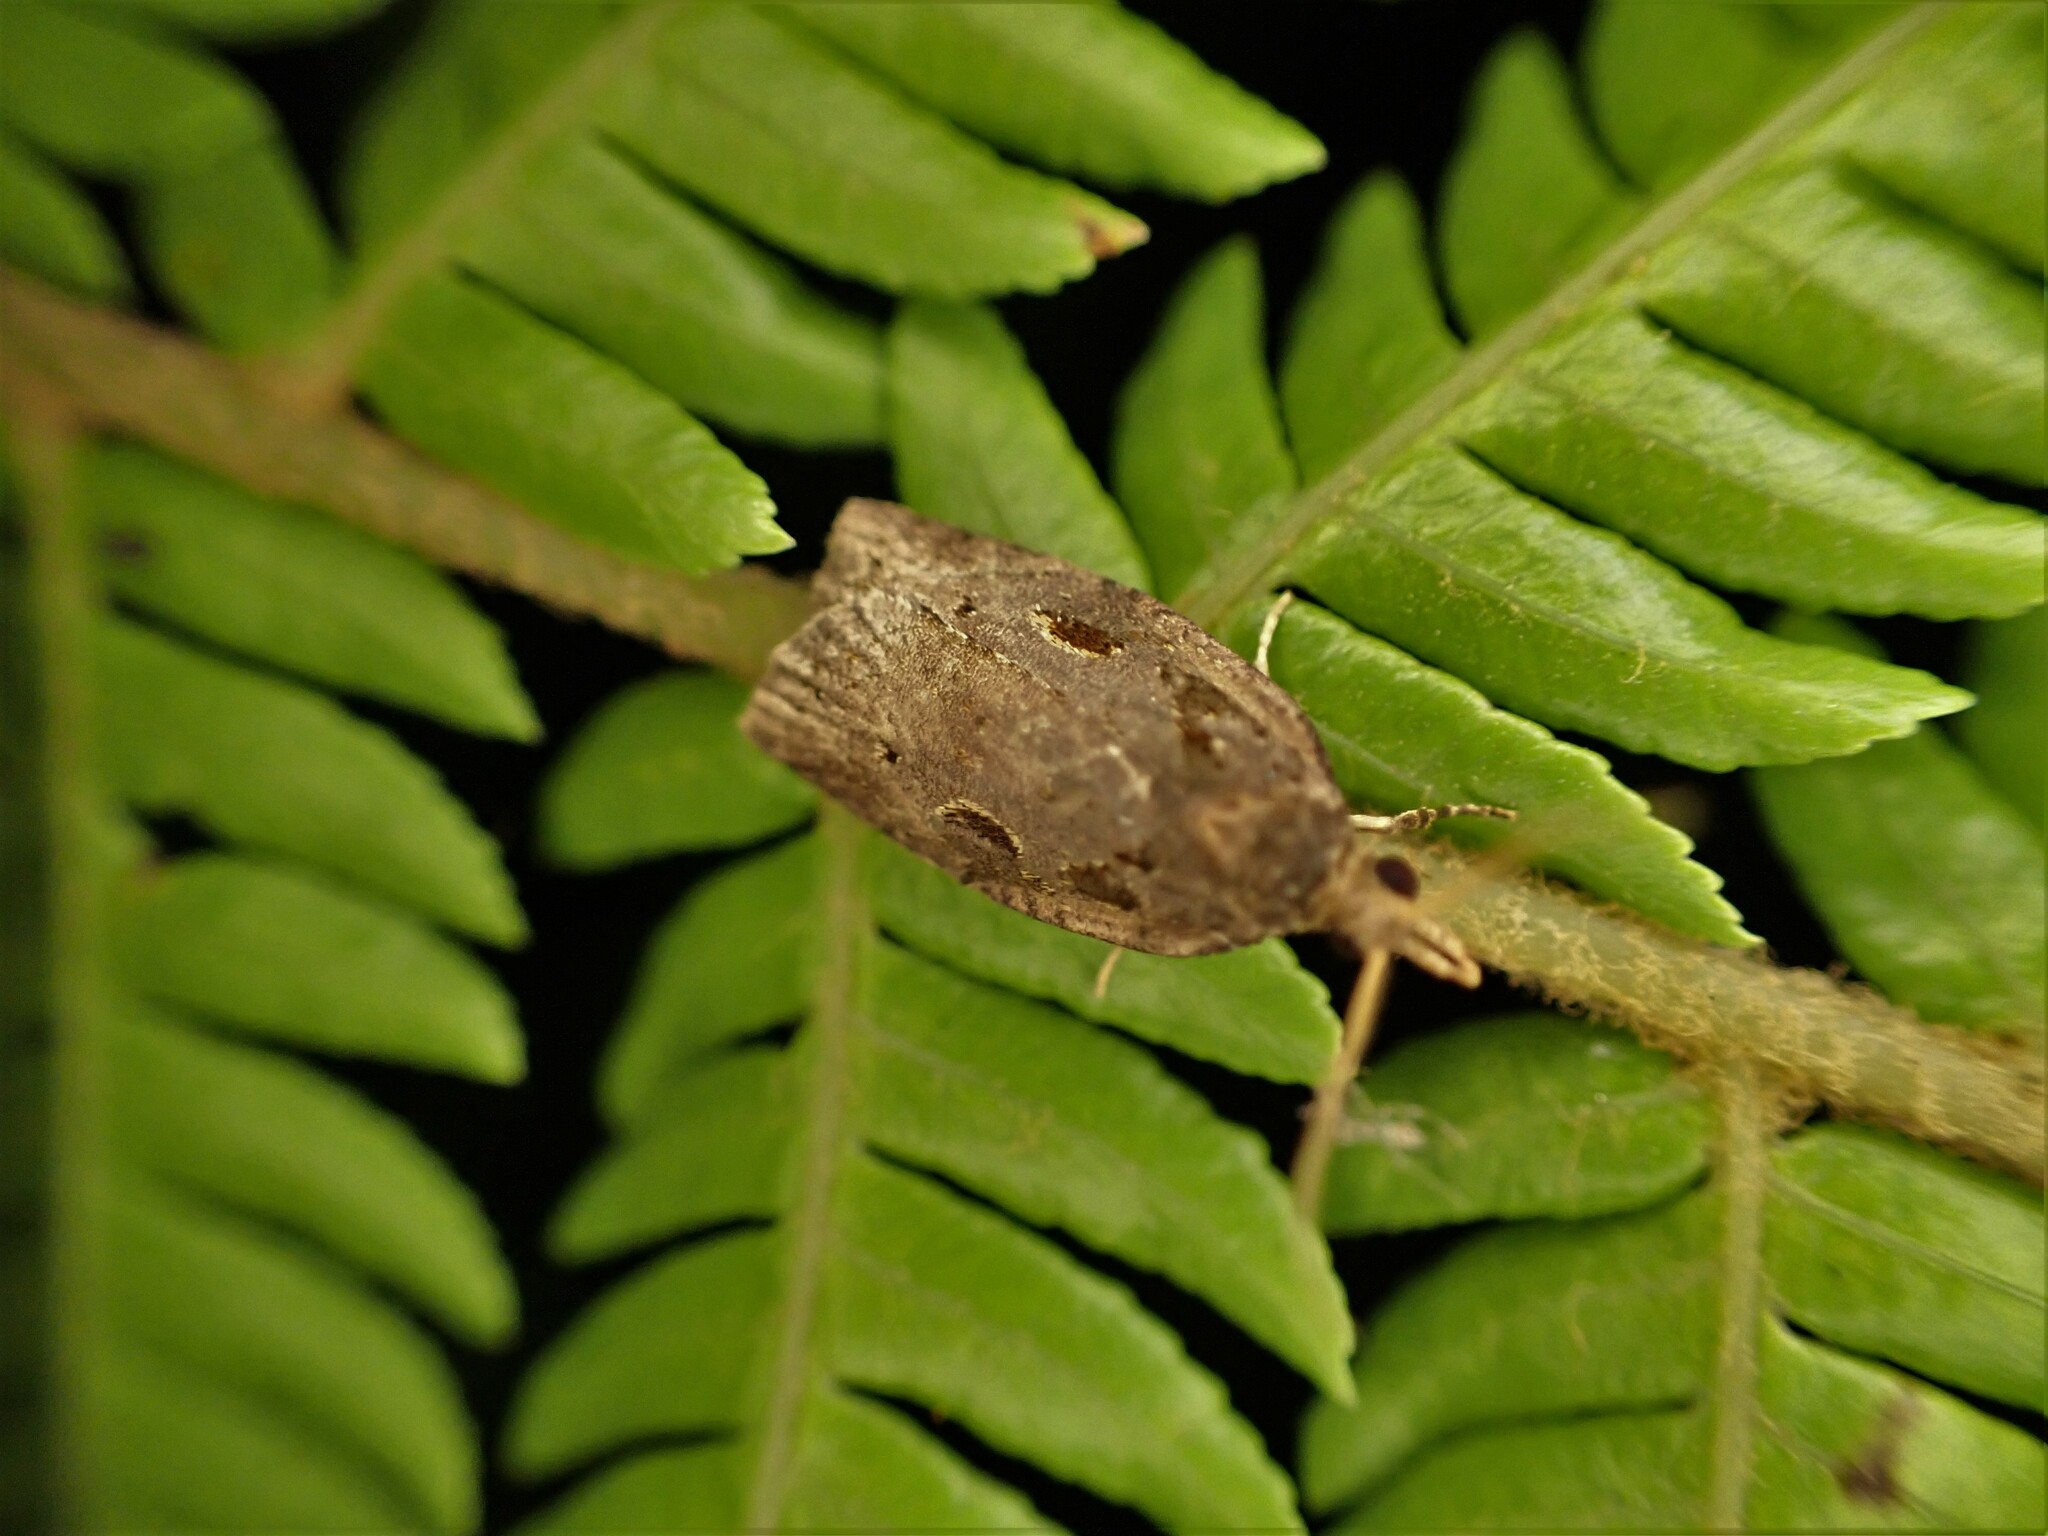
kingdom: Animalia
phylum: Arthropoda
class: Insecta
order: Lepidoptera
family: Tortricidae
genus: Ctenopseustis
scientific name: Ctenopseustis fraterna
